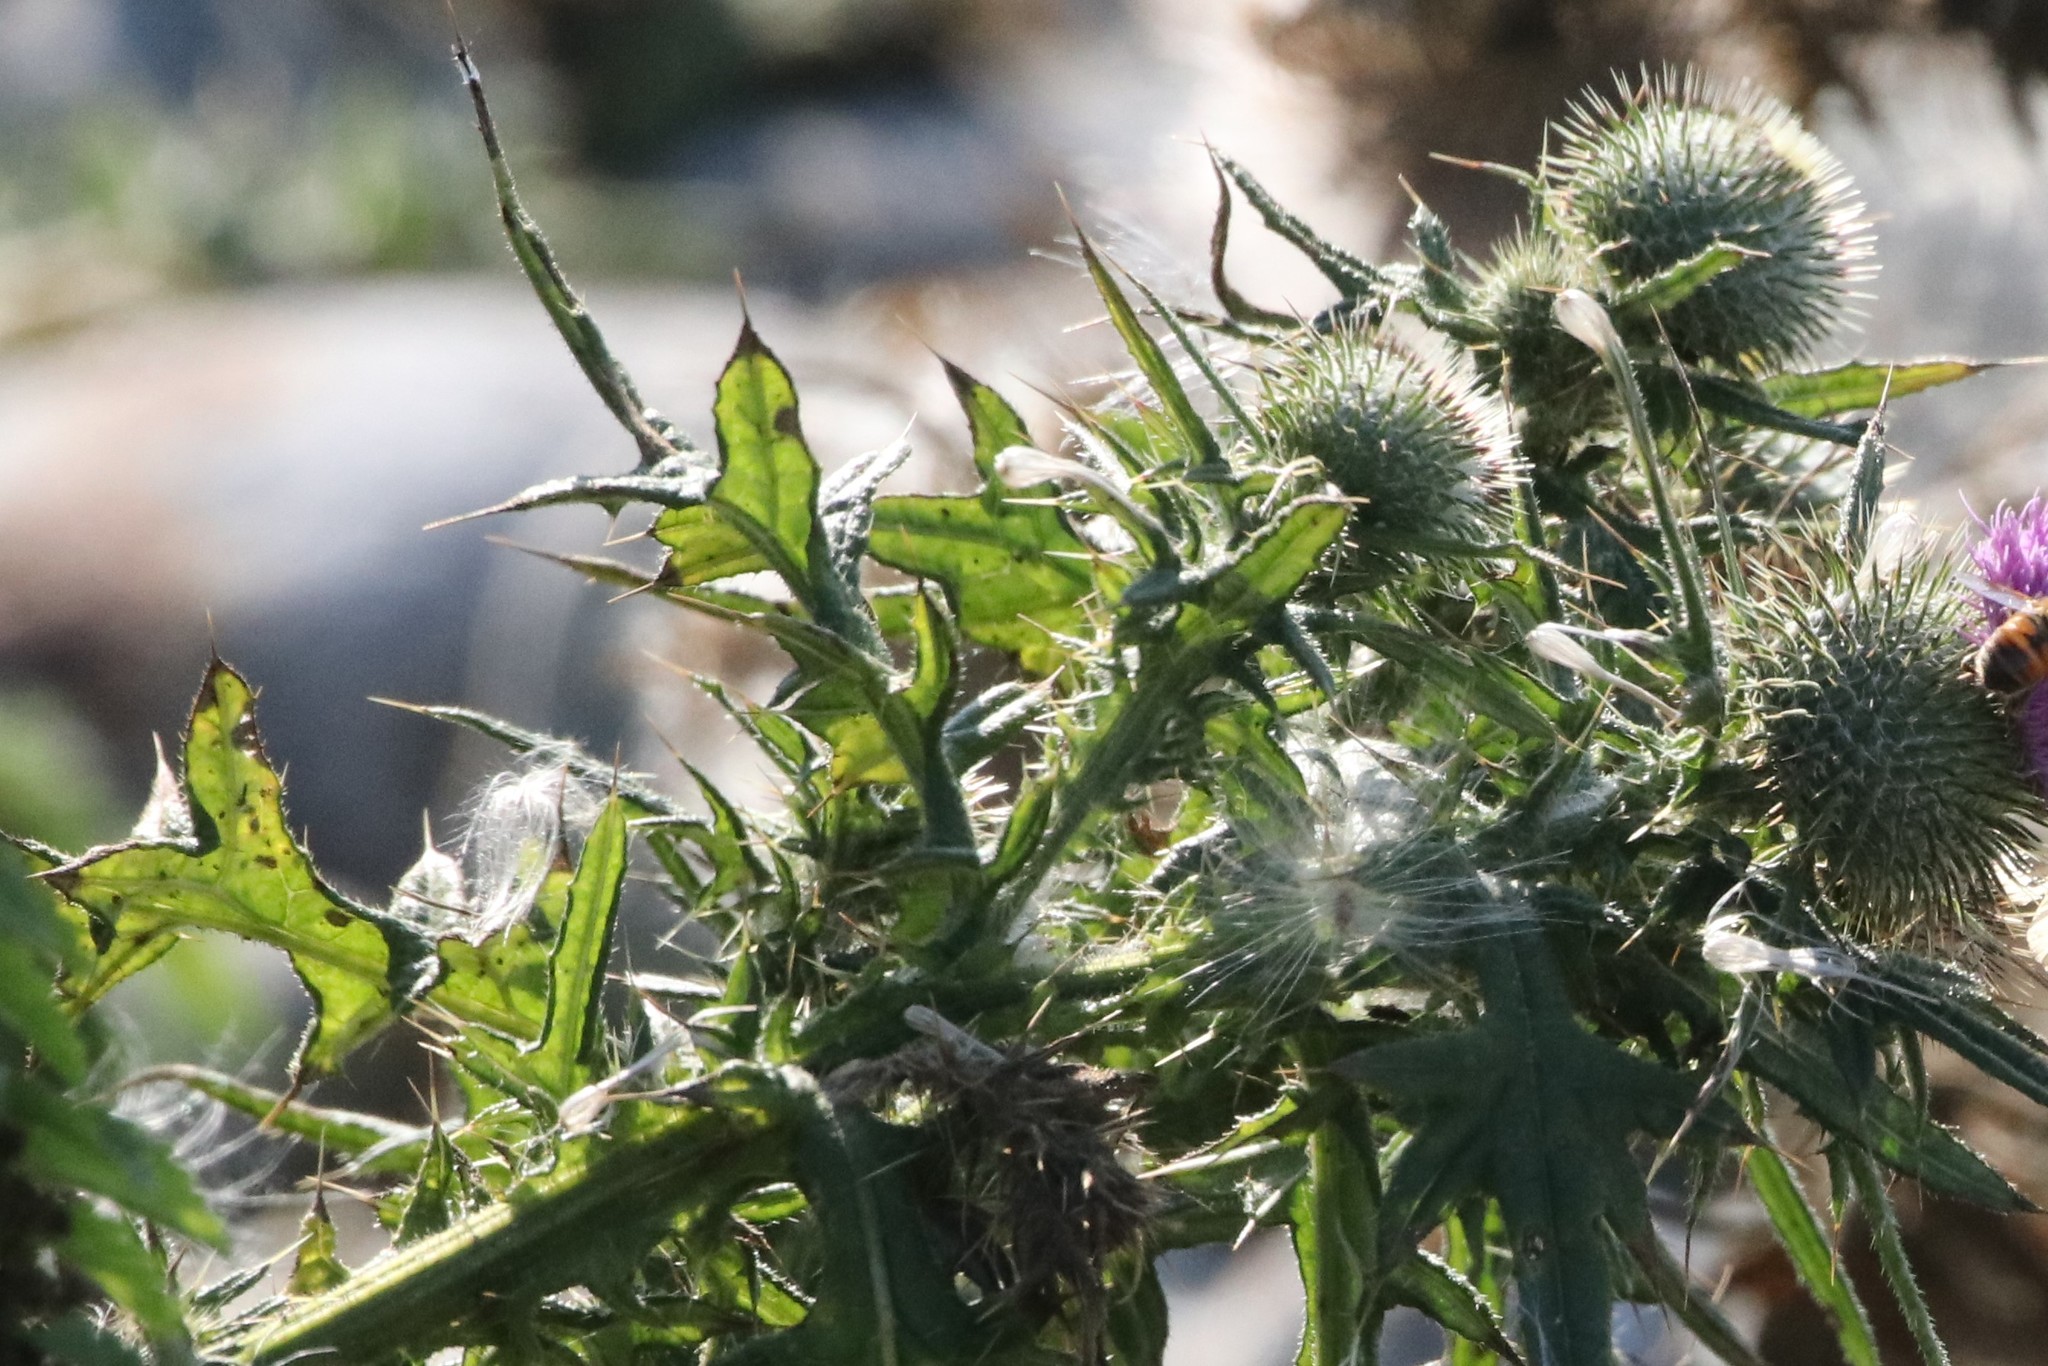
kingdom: Plantae
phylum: Tracheophyta
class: Magnoliopsida
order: Asterales
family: Asteraceae
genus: Cirsium
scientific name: Cirsium vulgare
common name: Bull thistle
